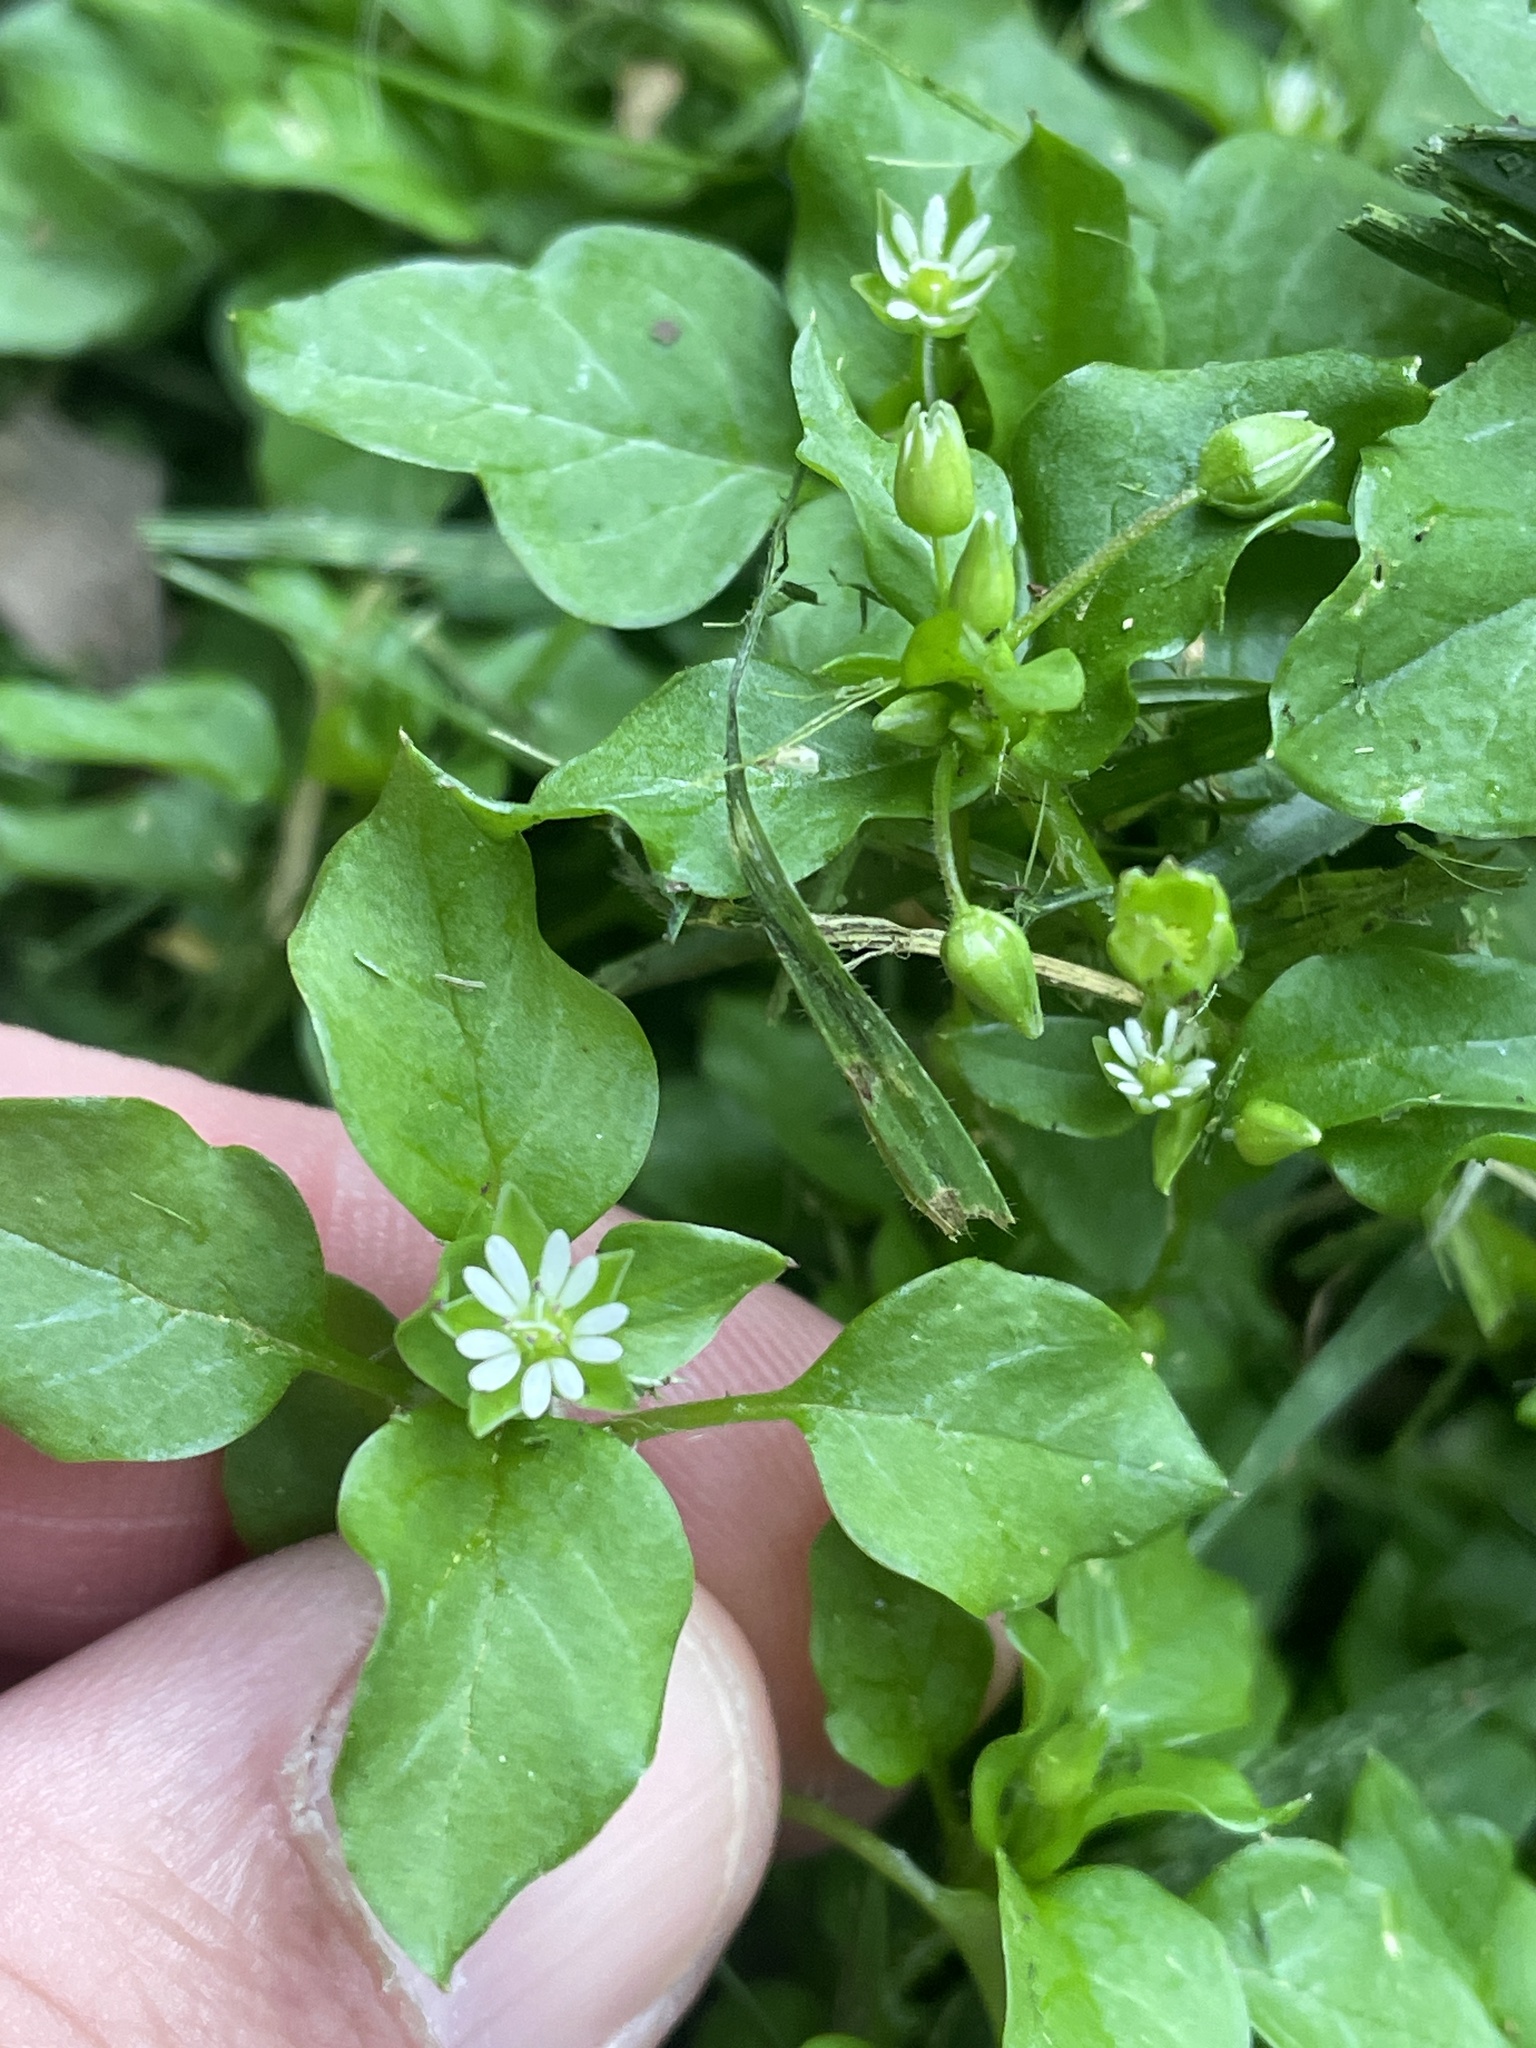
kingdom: Plantae
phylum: Tracheophyta
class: Magnoliopsida
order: Caryophyllales
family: Caryophyllaceae
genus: Stellaria
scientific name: Stellaria media
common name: Common chickweed
